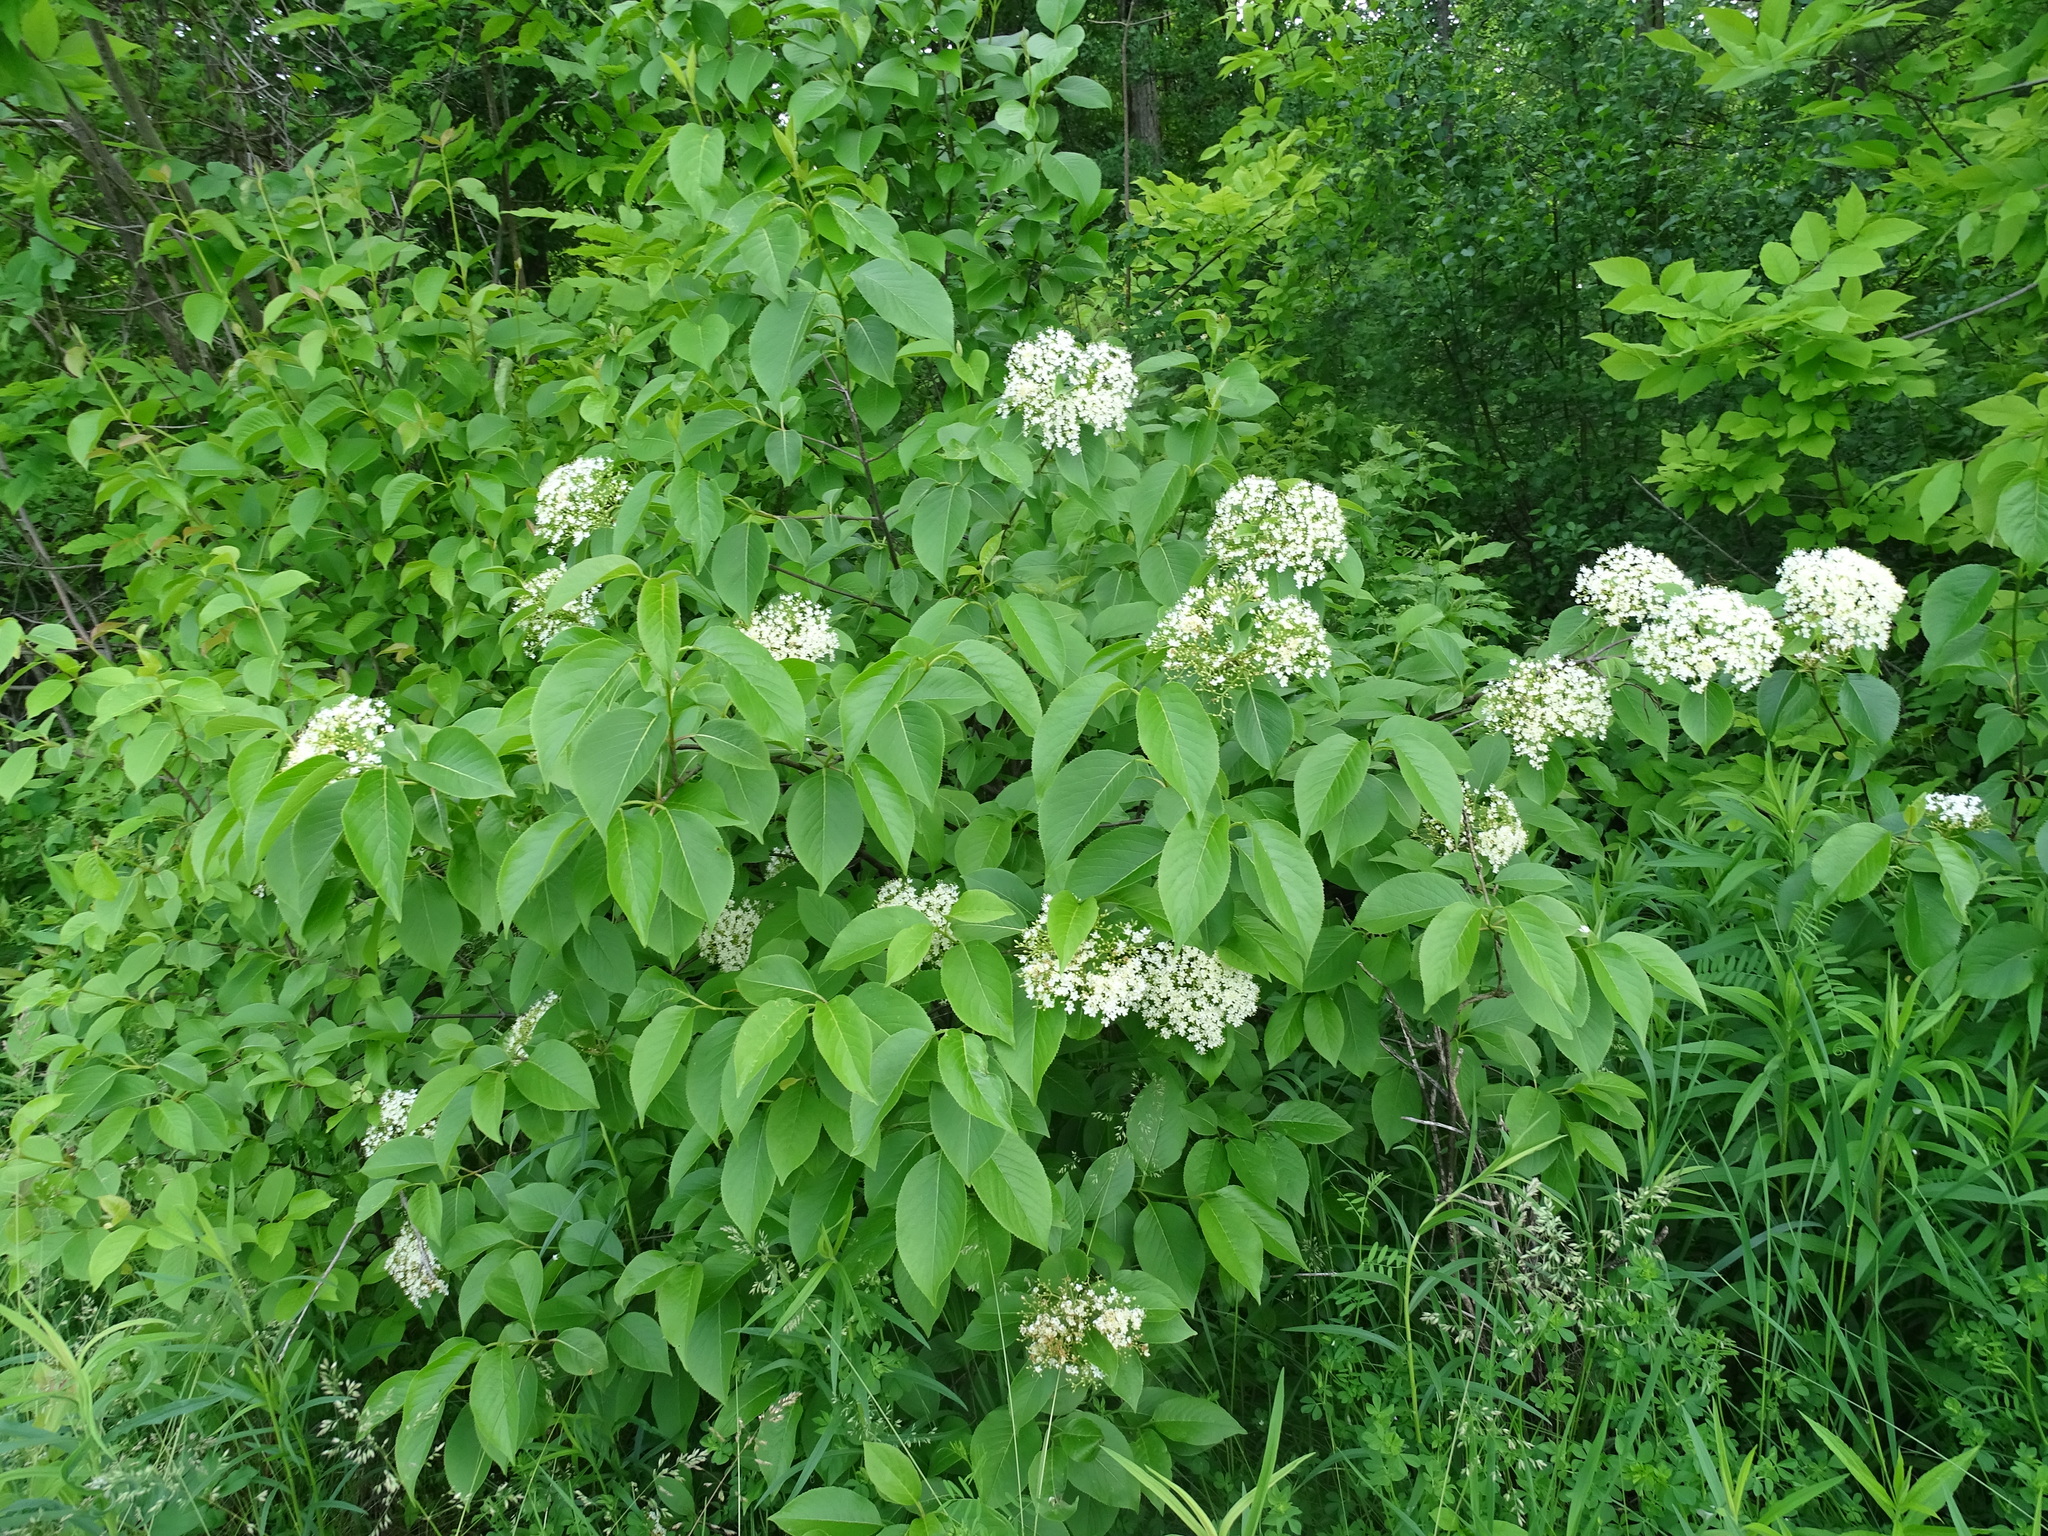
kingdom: Plantae
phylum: Tracheophyta
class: Magnoliopsida
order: Dipsacales
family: Viburnaceae
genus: Viburnum
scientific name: Viburnum lentago
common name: Black haw
